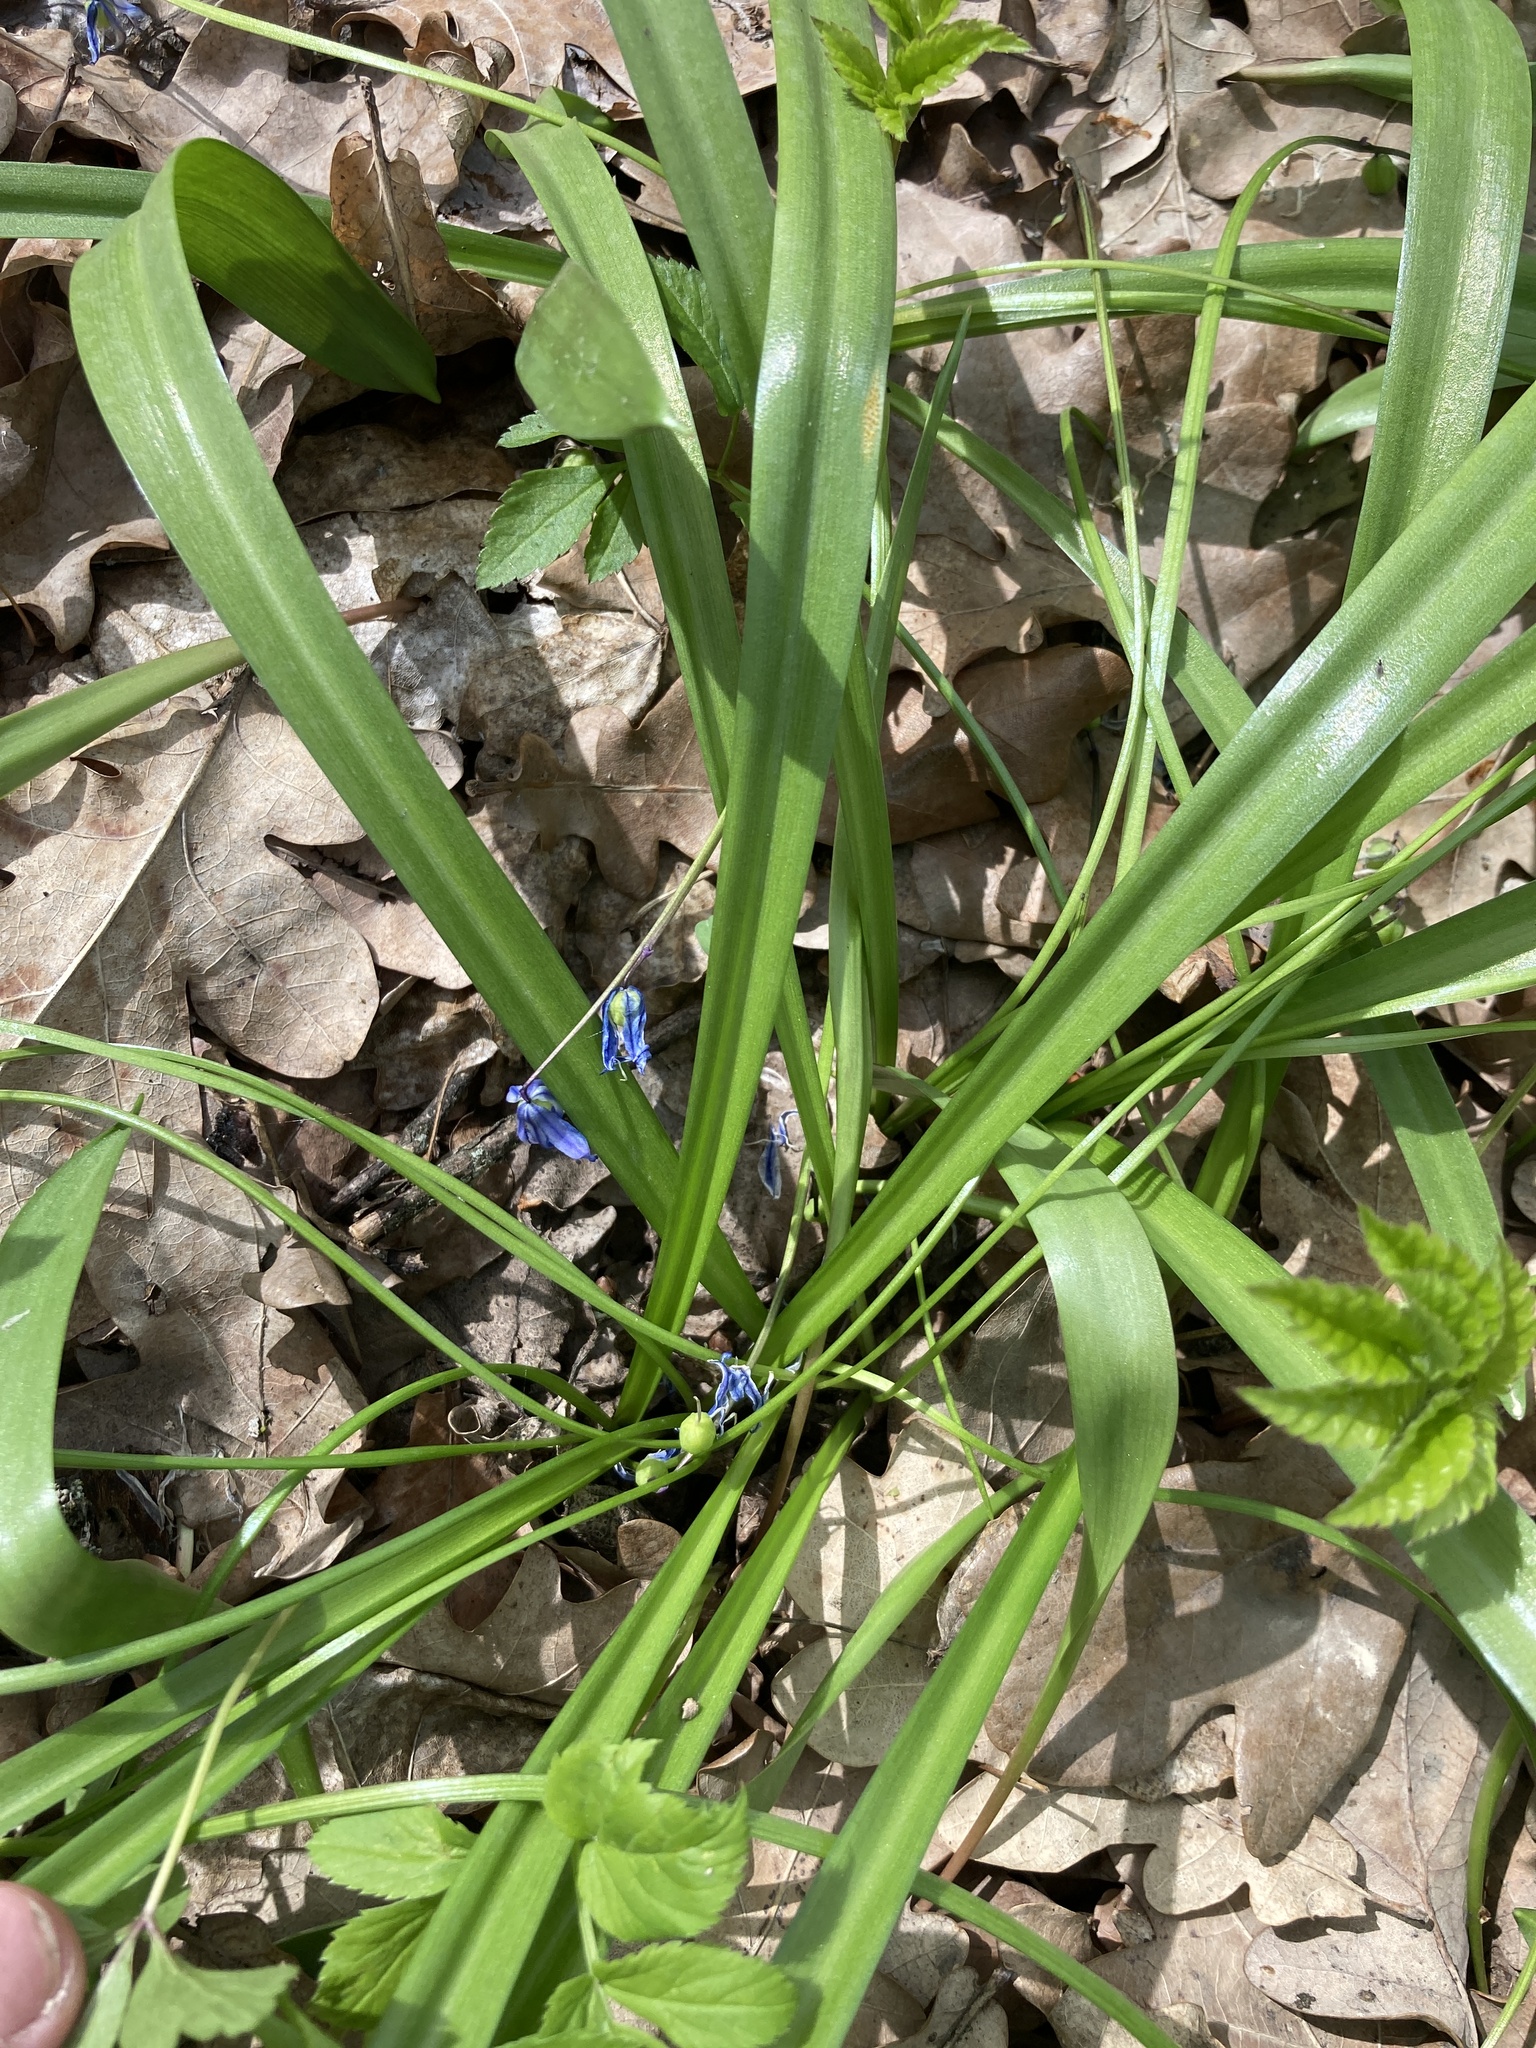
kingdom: Plantae
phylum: Tracheophyta
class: Liliopsida
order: Asparagales
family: Asparagaceae
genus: Scilla
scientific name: Scilla siberica
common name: Siberian squill
